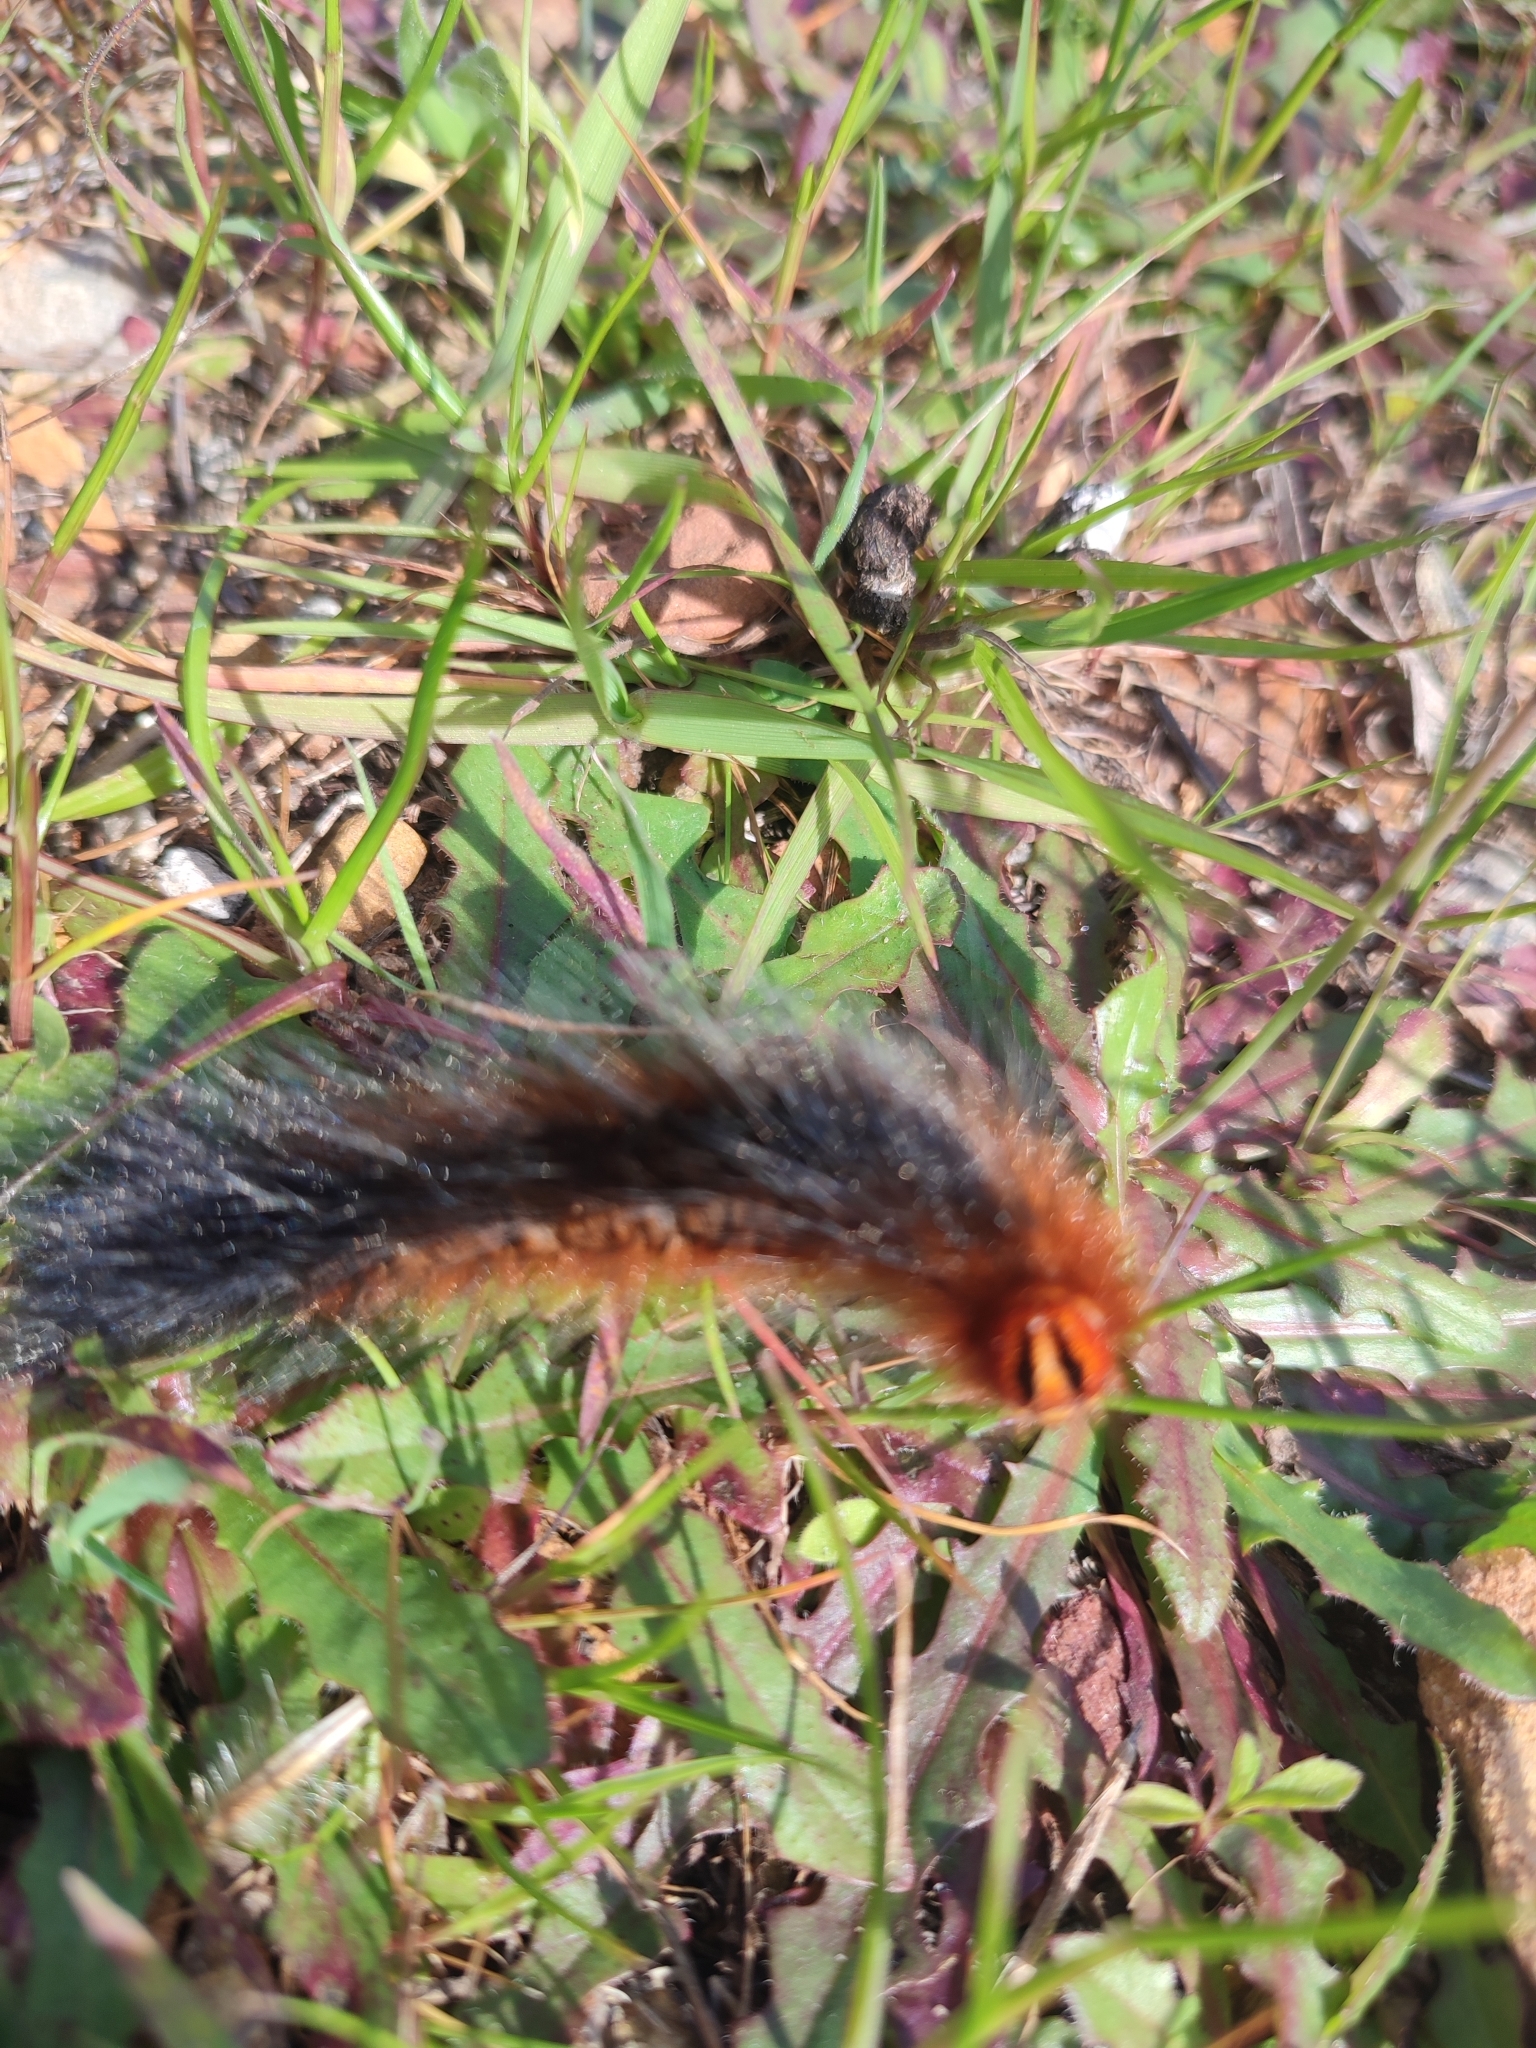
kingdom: Animalia
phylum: Arthropoda
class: Insecta
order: Lepidoptera
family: Lasiocampidae
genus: Mesocelis
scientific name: Mesocelis monticola
